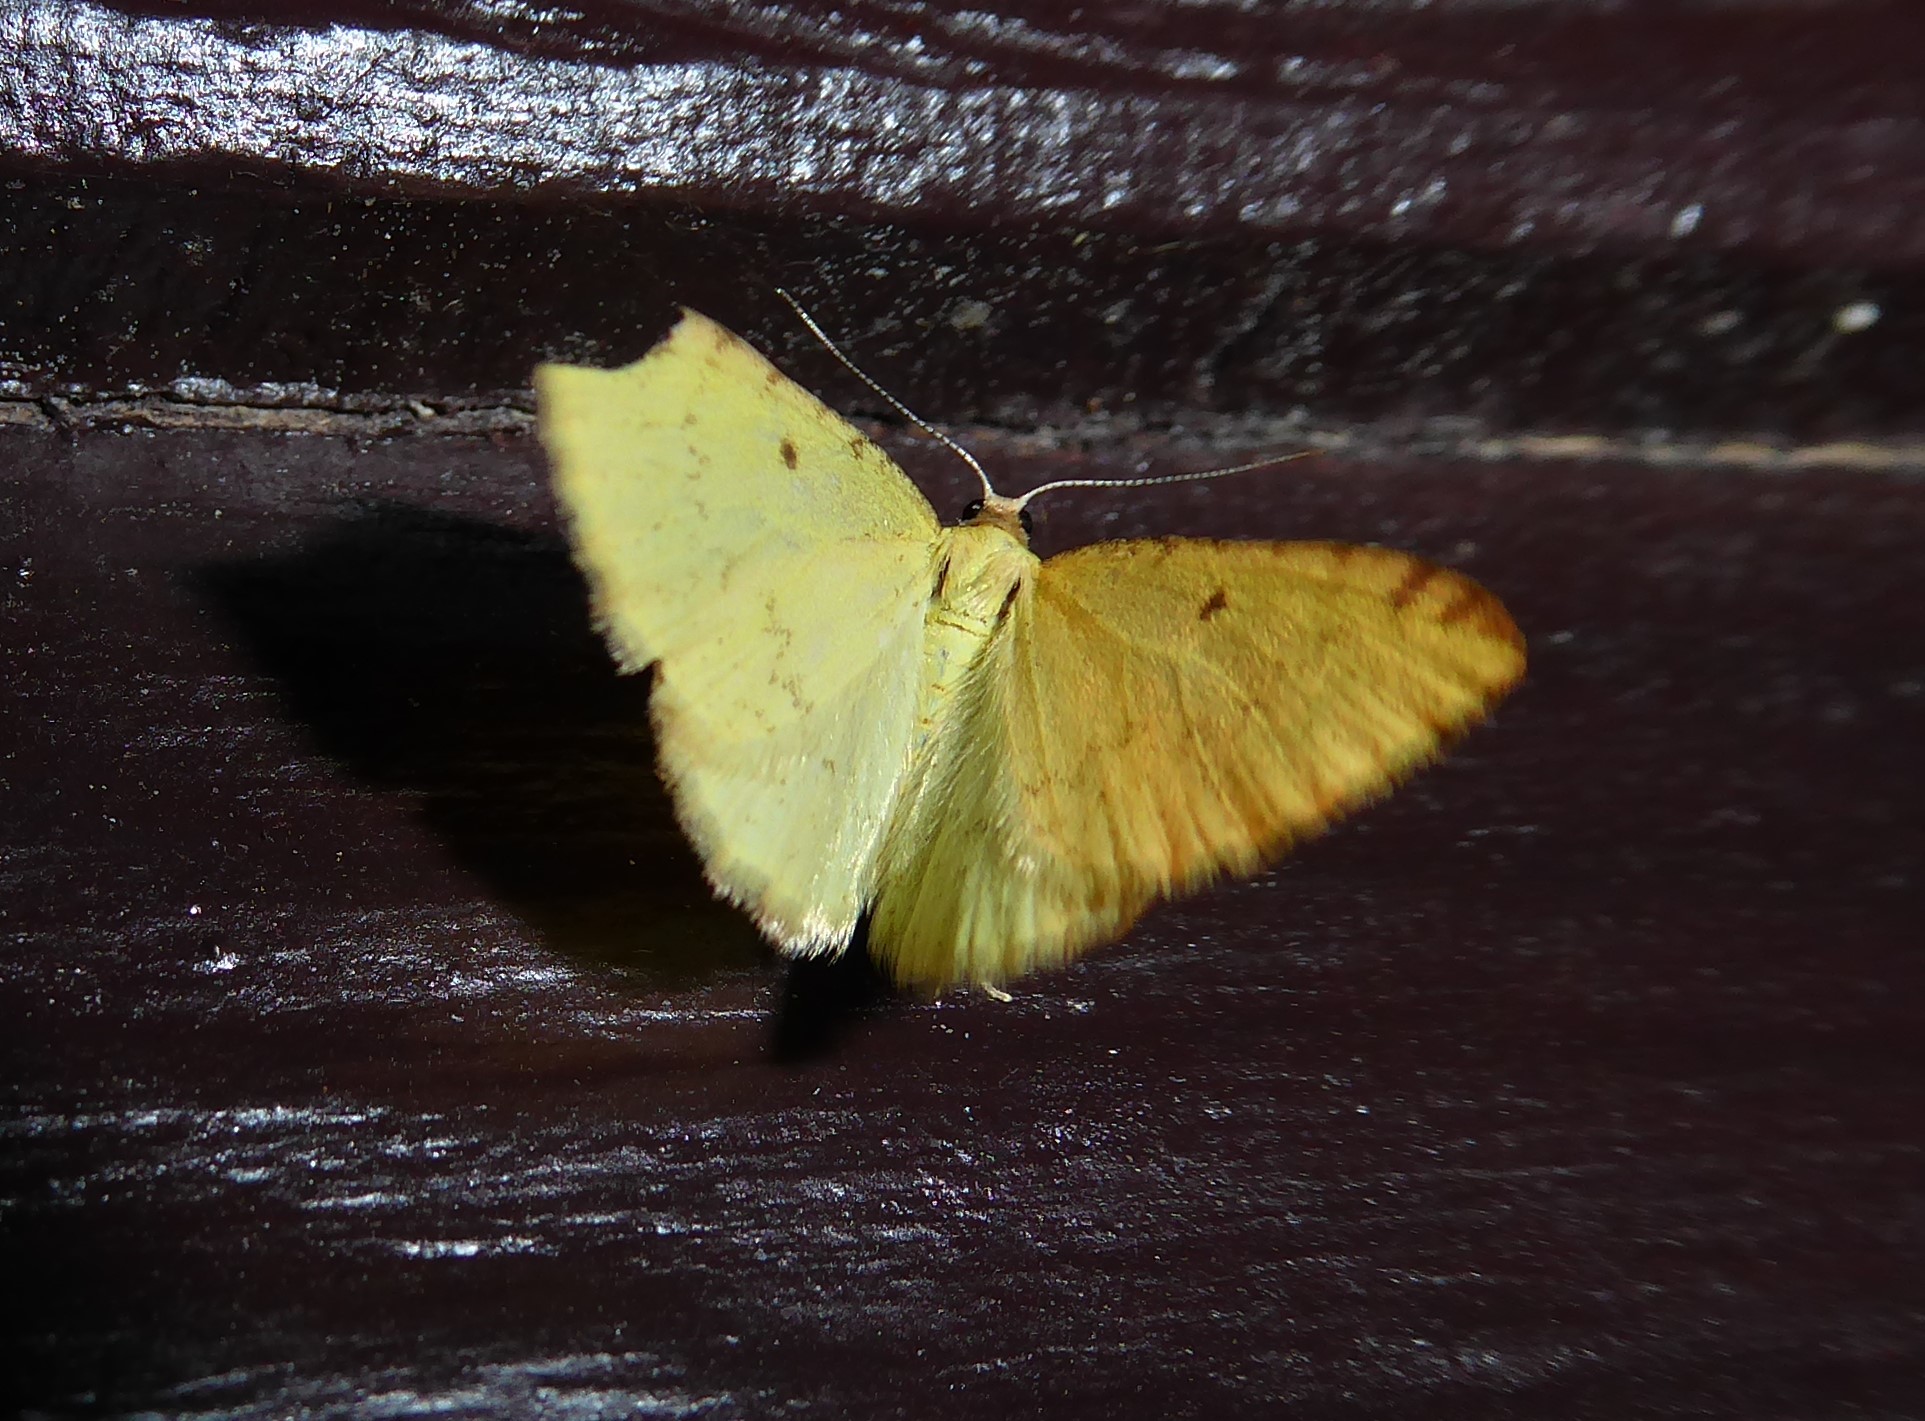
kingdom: Animalia
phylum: Arthropoda
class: Insecta
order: Lepidoptera
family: Geometridae
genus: Epiphryne
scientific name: Epiphryne undosata
